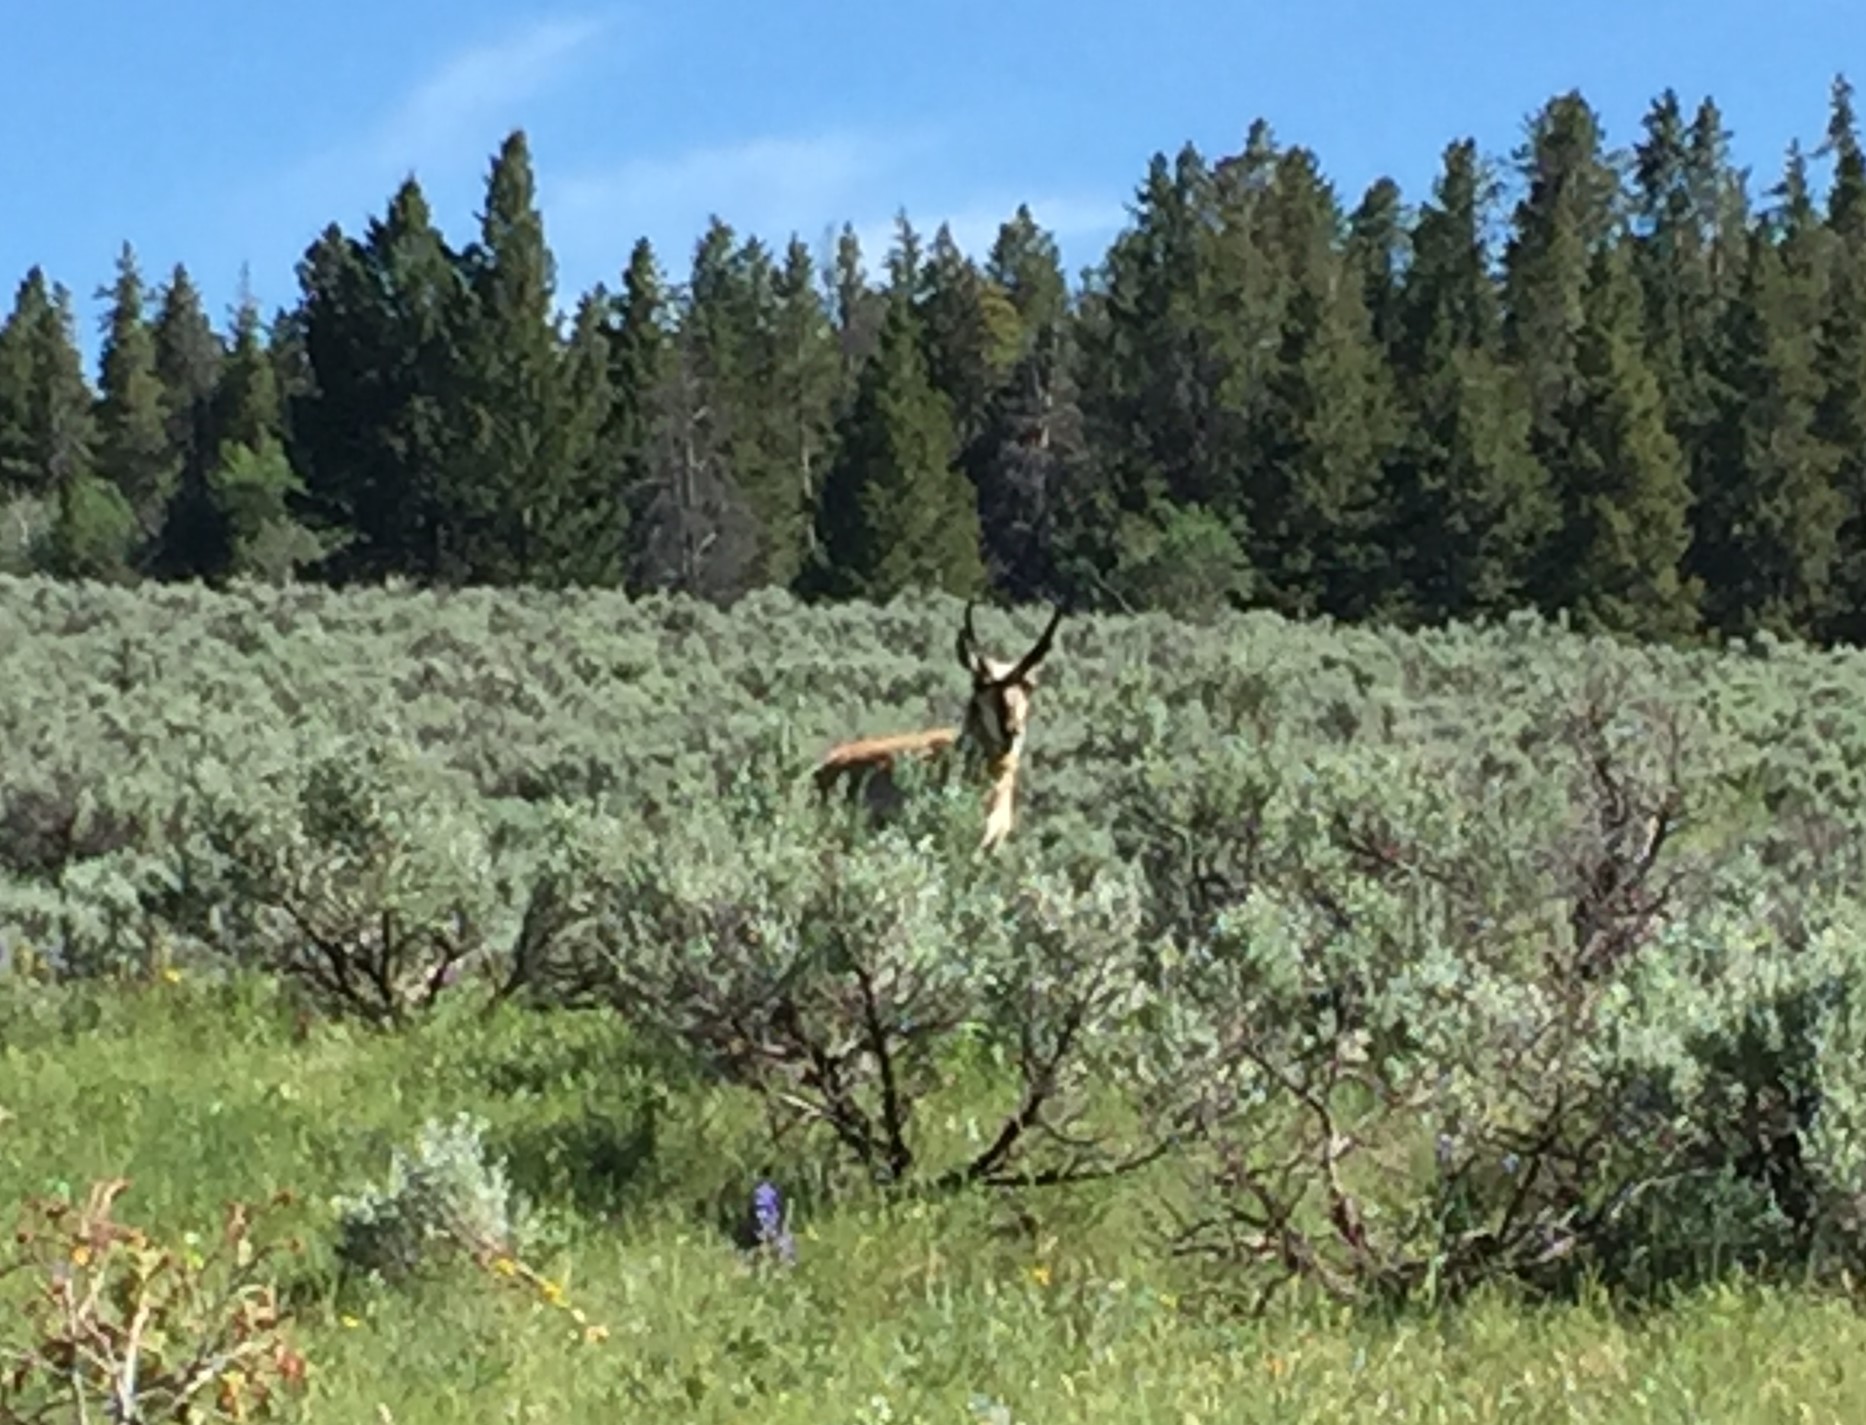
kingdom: Animalia
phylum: Chordata
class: Mammalia
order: Artiodactyla
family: Antilocapridae
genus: Antilocapra
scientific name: Antilocapra americana
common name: Pronghorn
